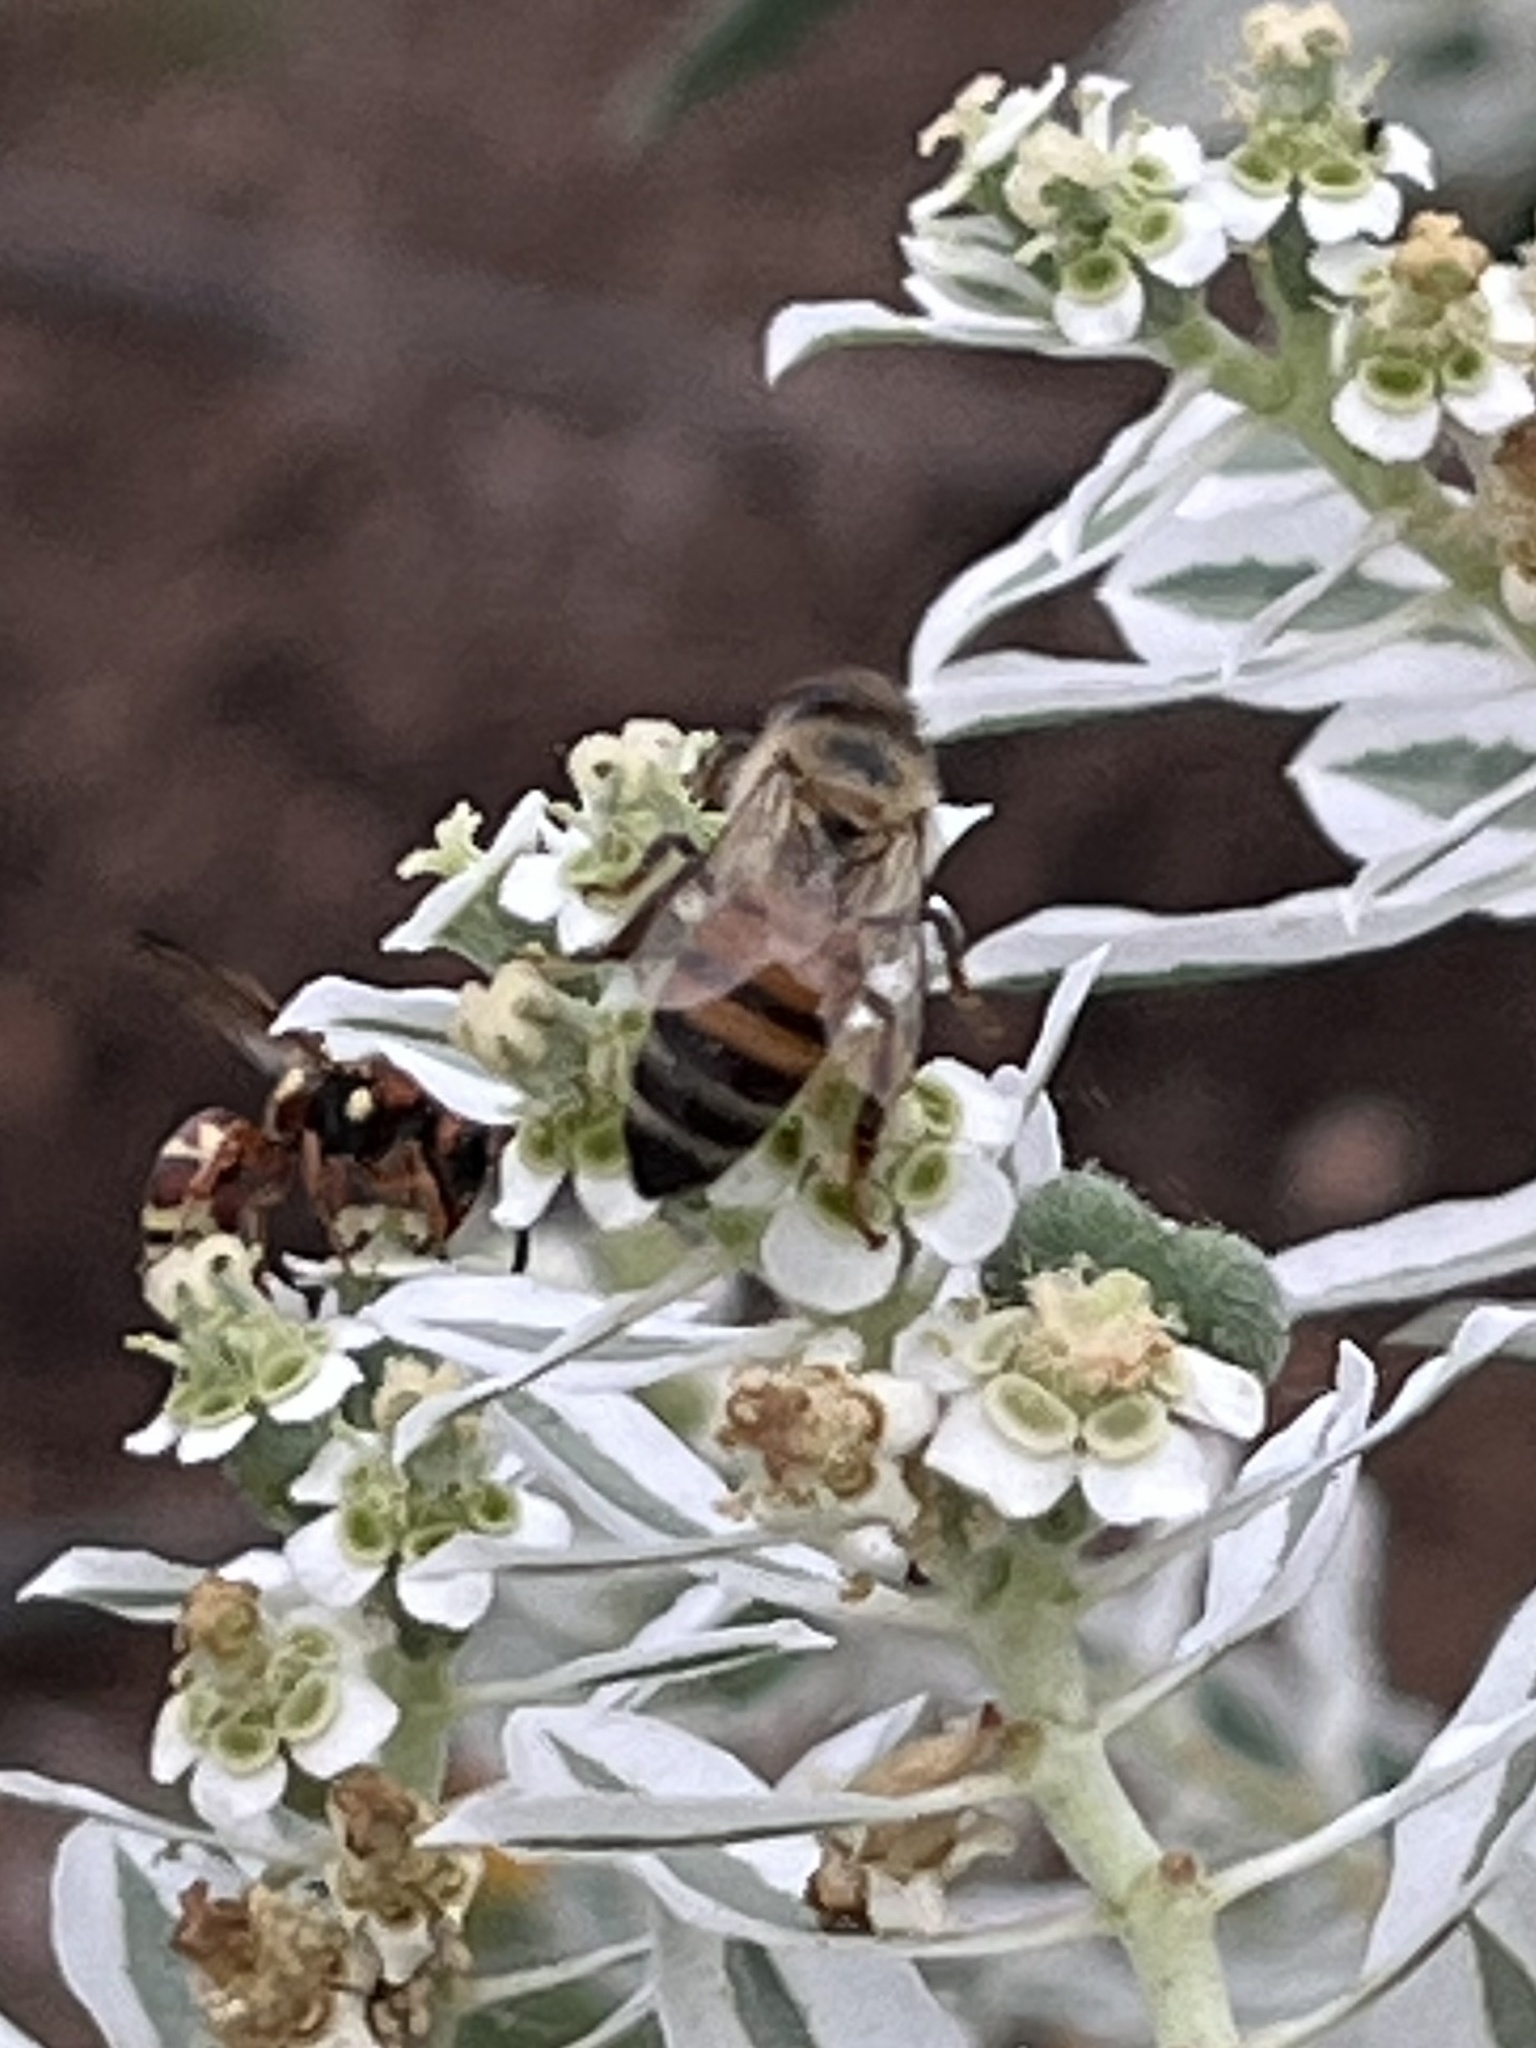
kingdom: Animalia
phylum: Arthropoda
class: Insecta
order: Hymenoptera
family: Apidae
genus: Apis
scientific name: Apis mellifera
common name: Honey bee
